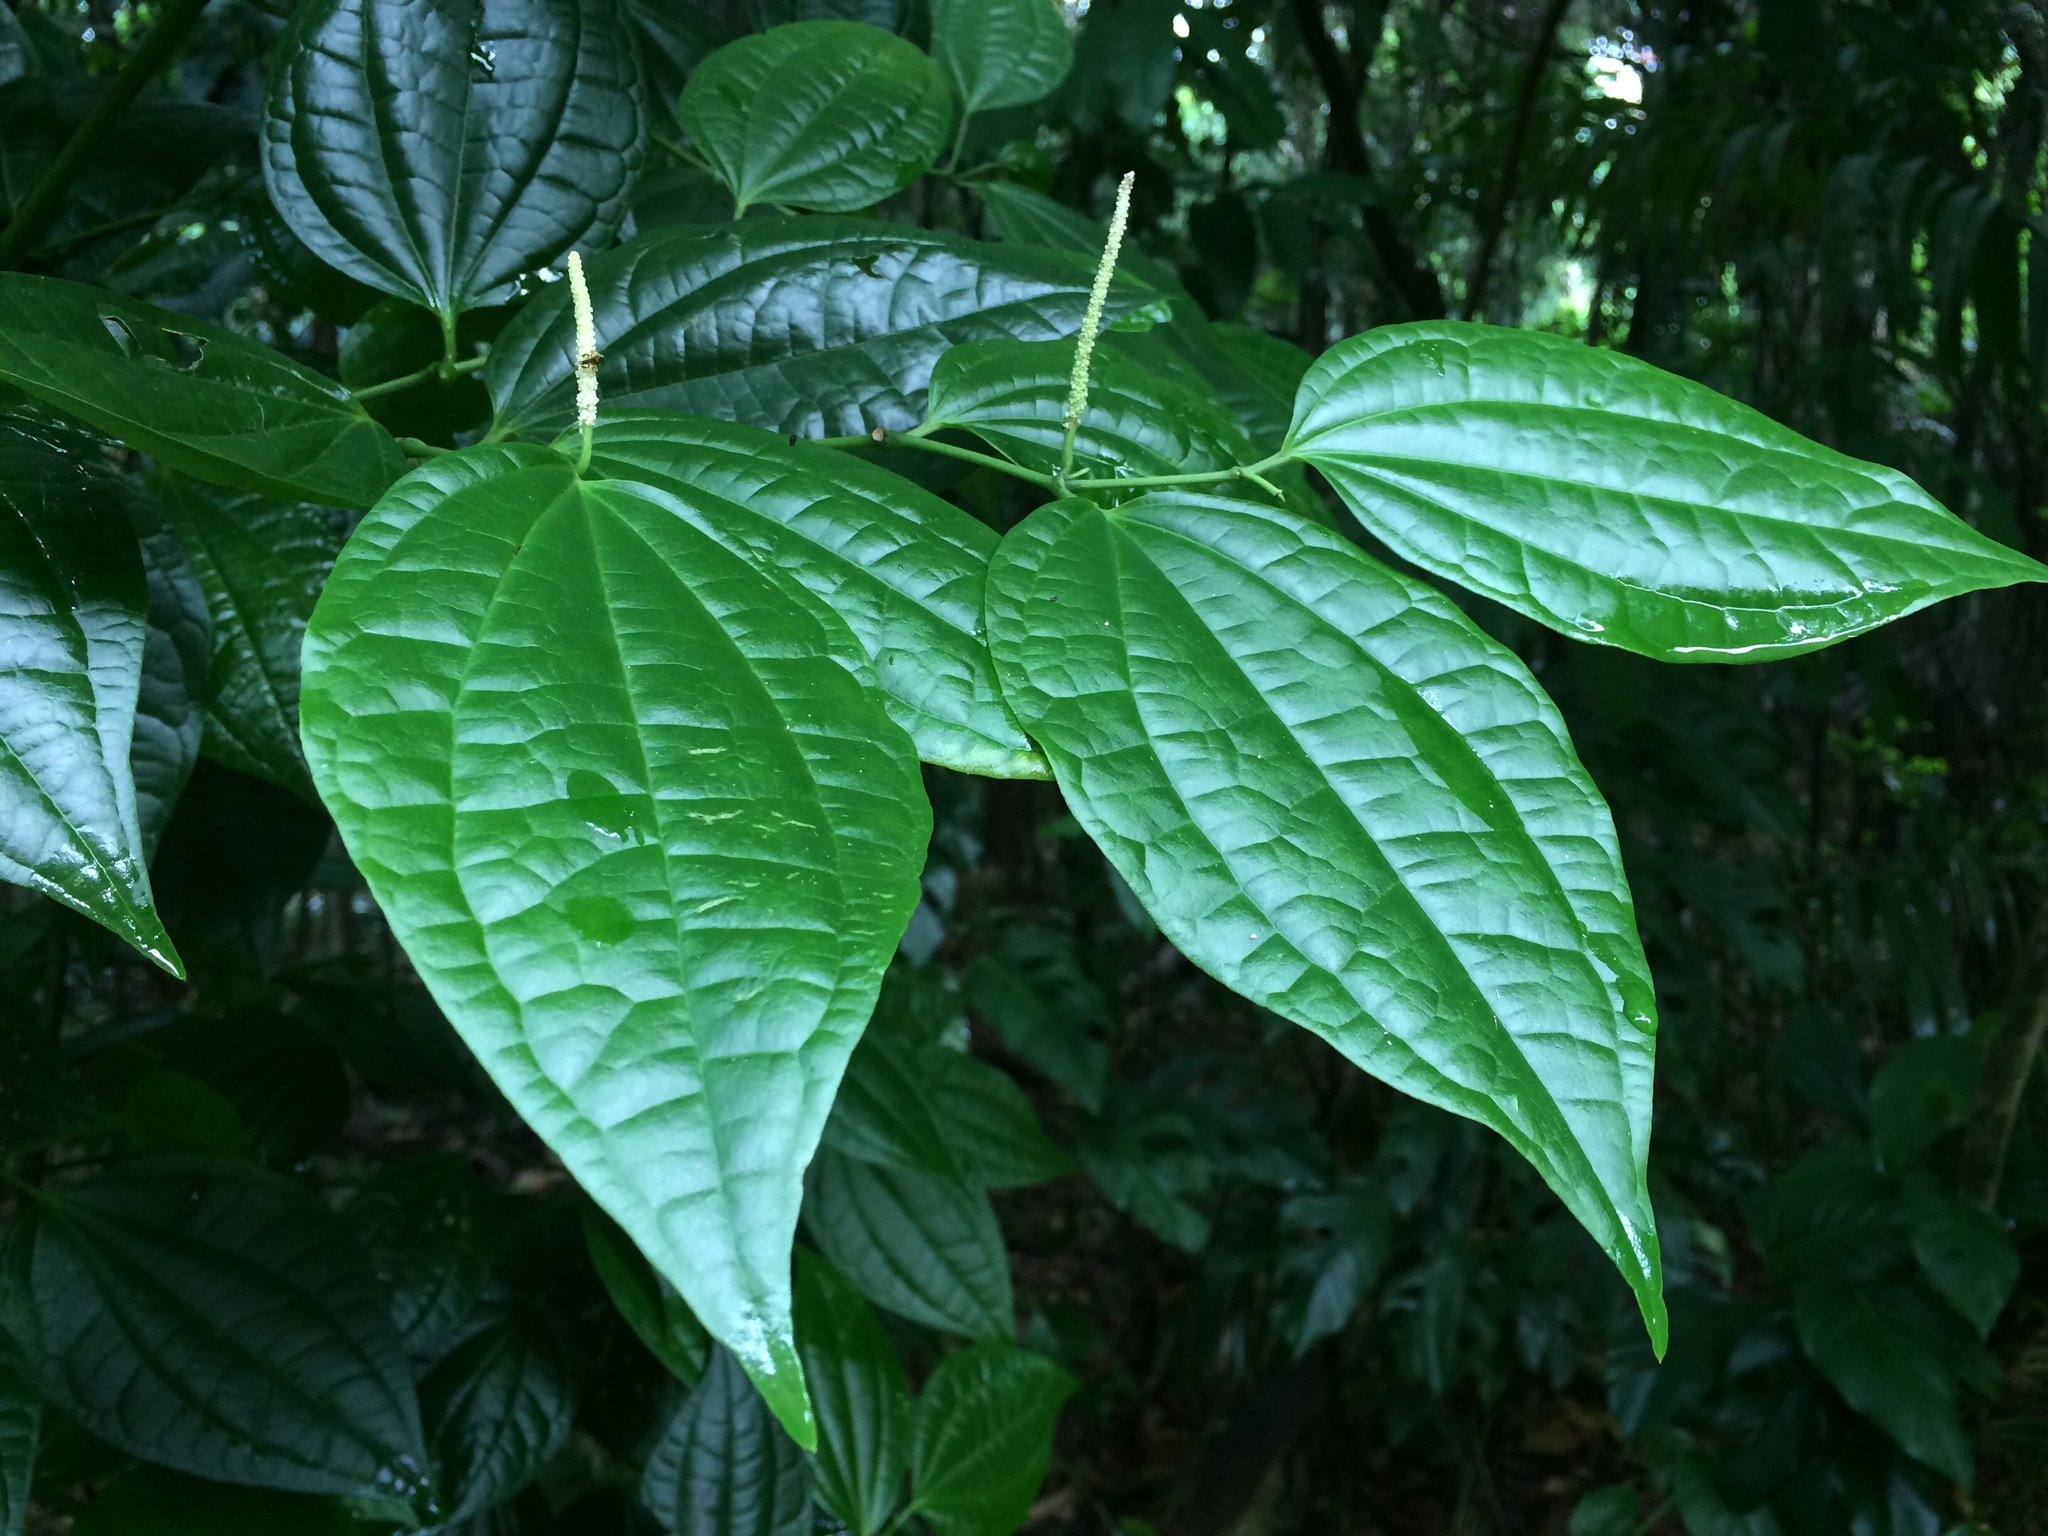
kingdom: Plantae
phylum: Tracheophyta
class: Magnoliopsida
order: Piperales
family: Piperaceae
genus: Piper
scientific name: Piper amalago
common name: Pepper-elder
